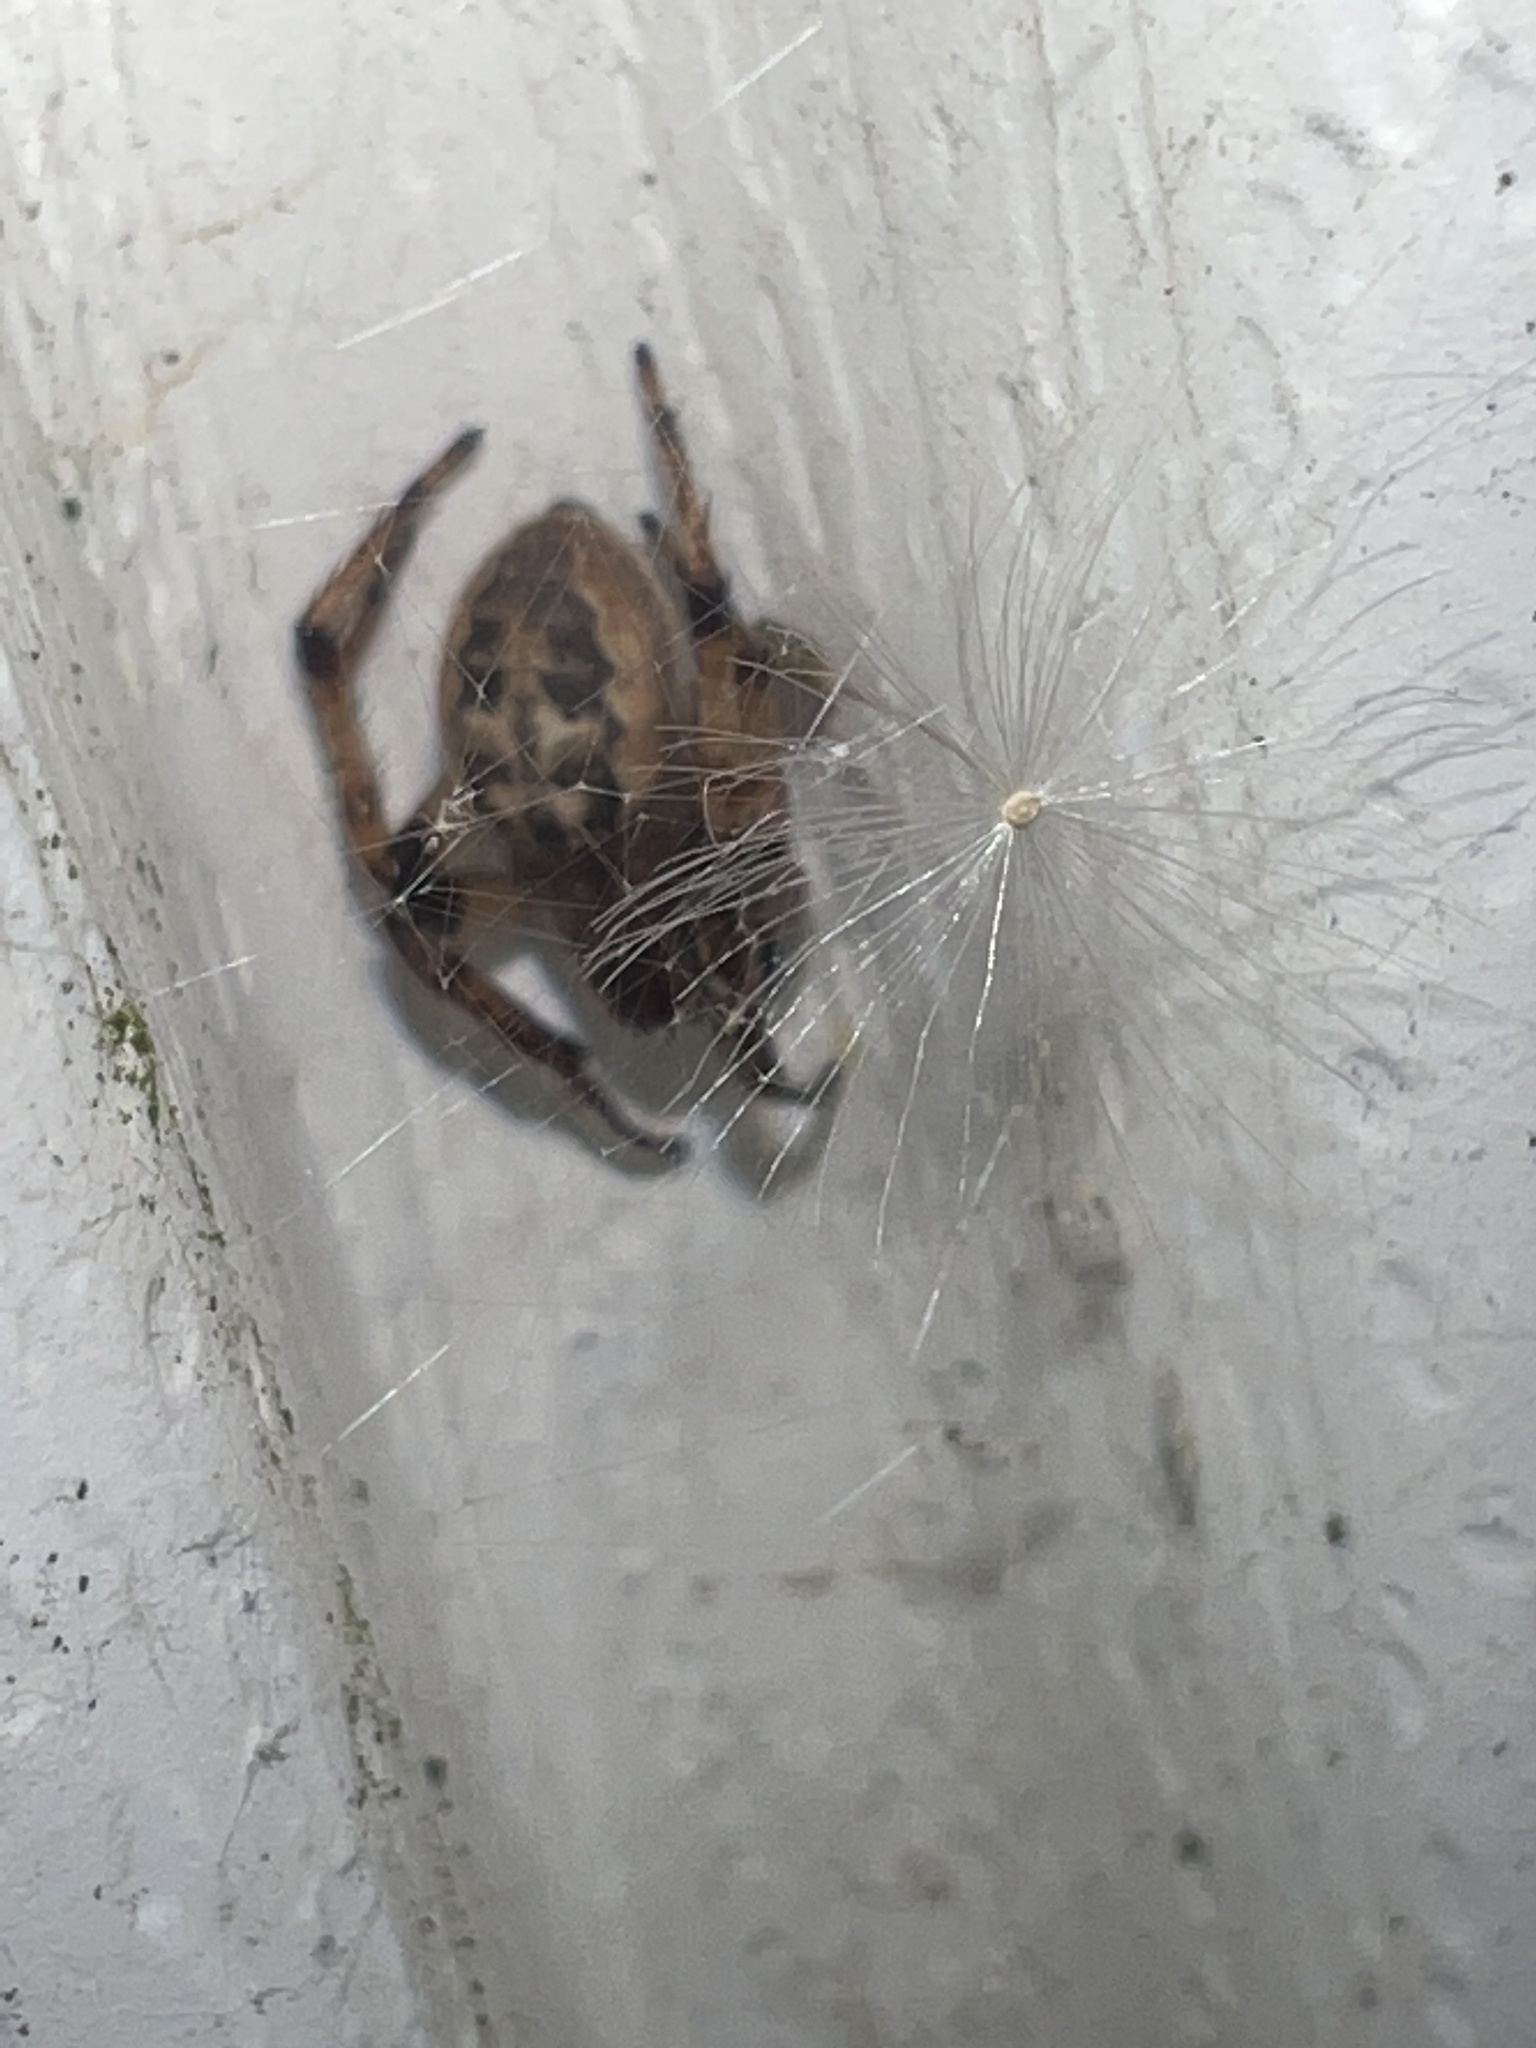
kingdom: Animalia
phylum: Arthropoda
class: Arachnida
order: Araneae
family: Araneidae
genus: Larinioides
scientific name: Larinioides cornutus
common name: Furrow orbweaver
